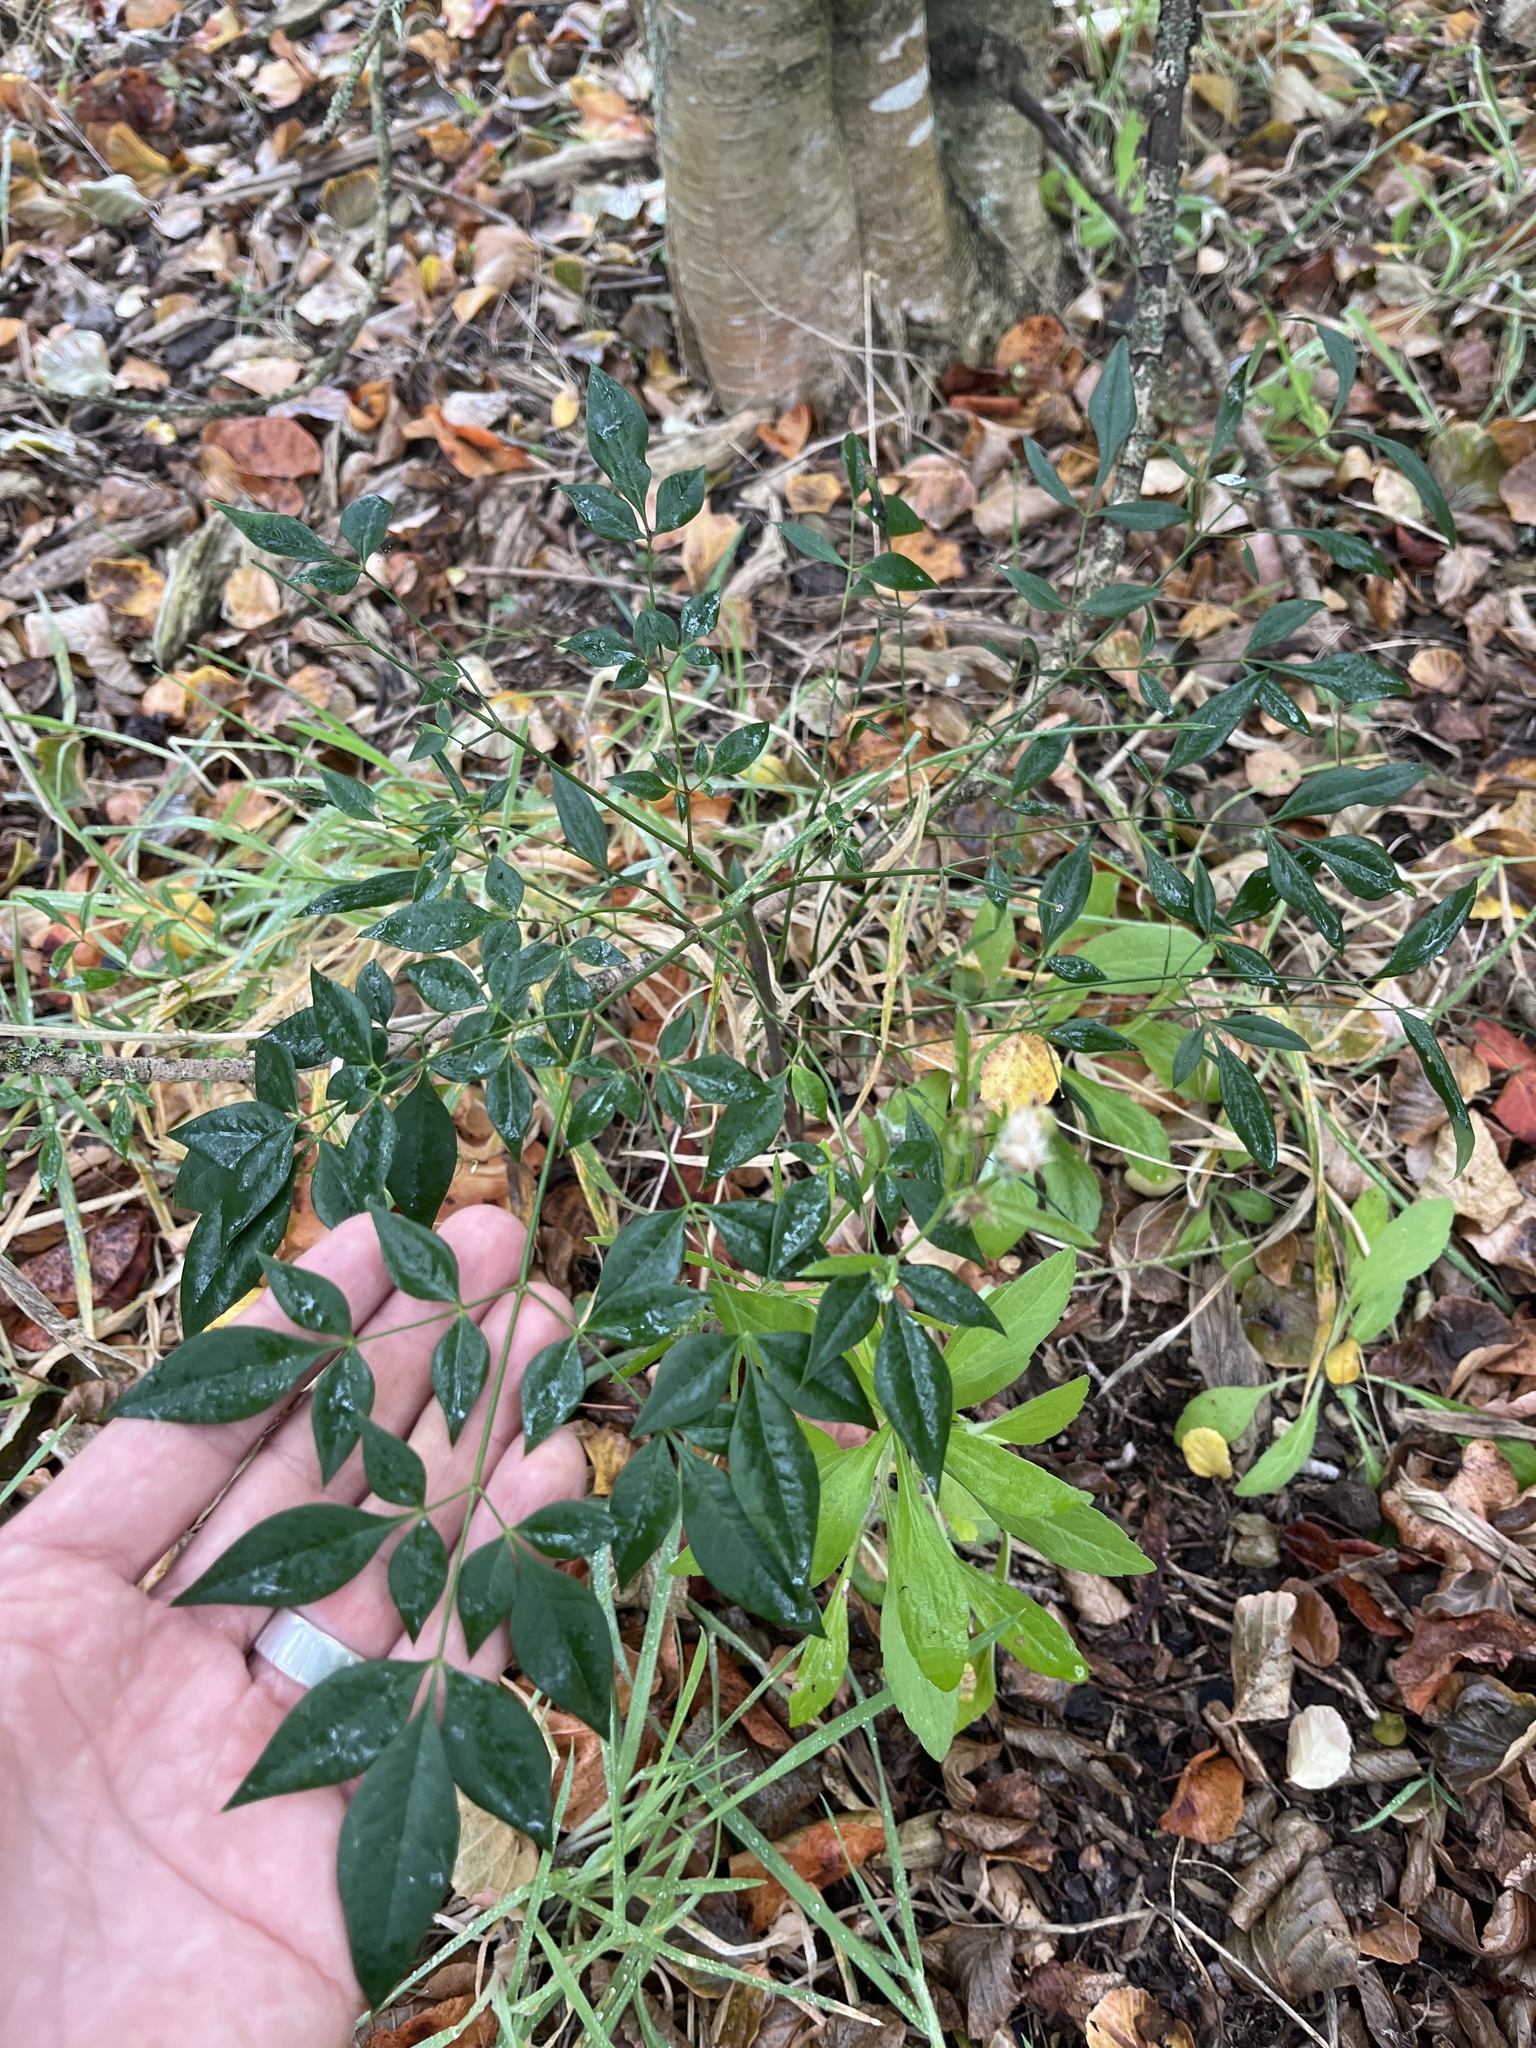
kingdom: Plantae
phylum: Tracheophyta
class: Magnoliopsida
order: Ranunculales
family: Berberidaceae
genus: Nandina
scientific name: Nandina domestica
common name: Sacred bamboo
